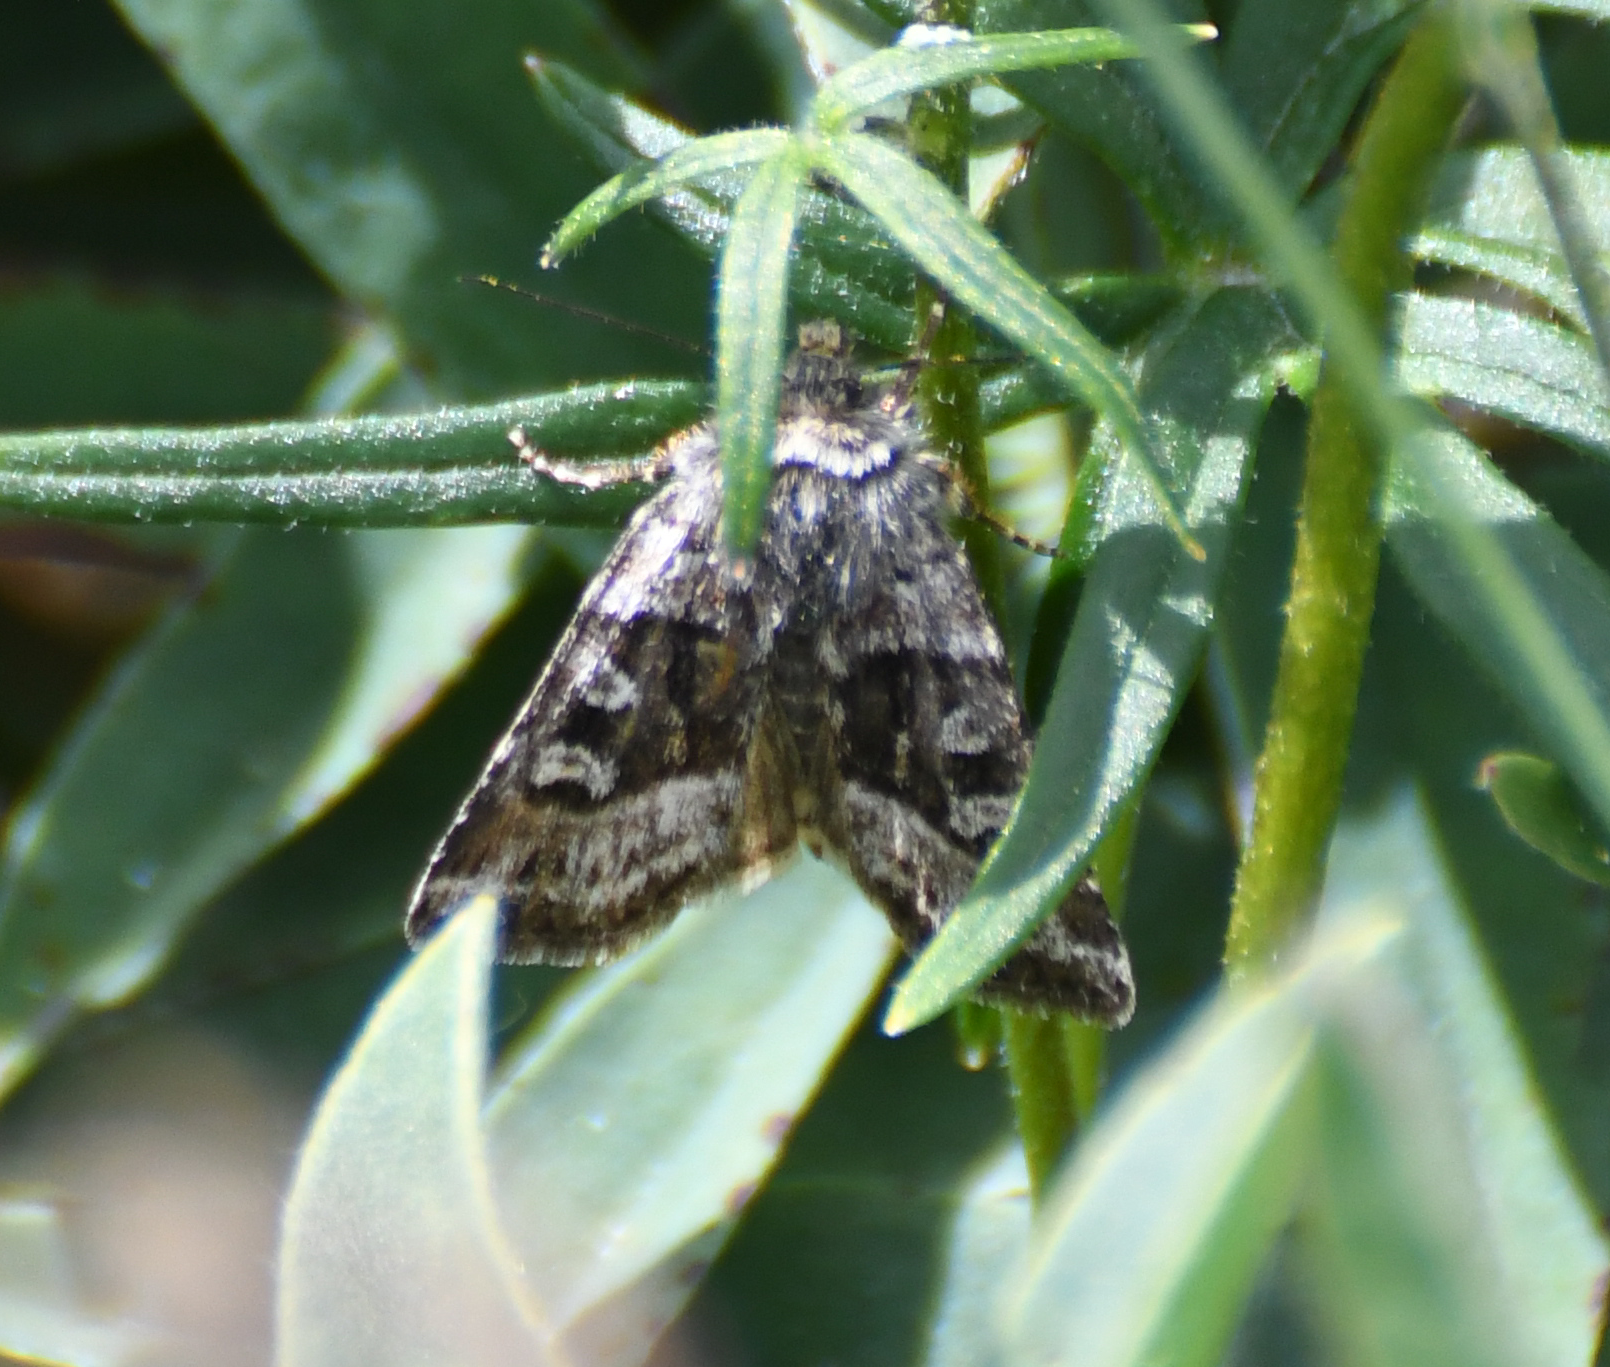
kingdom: Animalia
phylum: Arthropoda
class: Insecta
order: Lepidoptera
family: Noctuidae
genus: Euxoa
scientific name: Euxoa nomas
